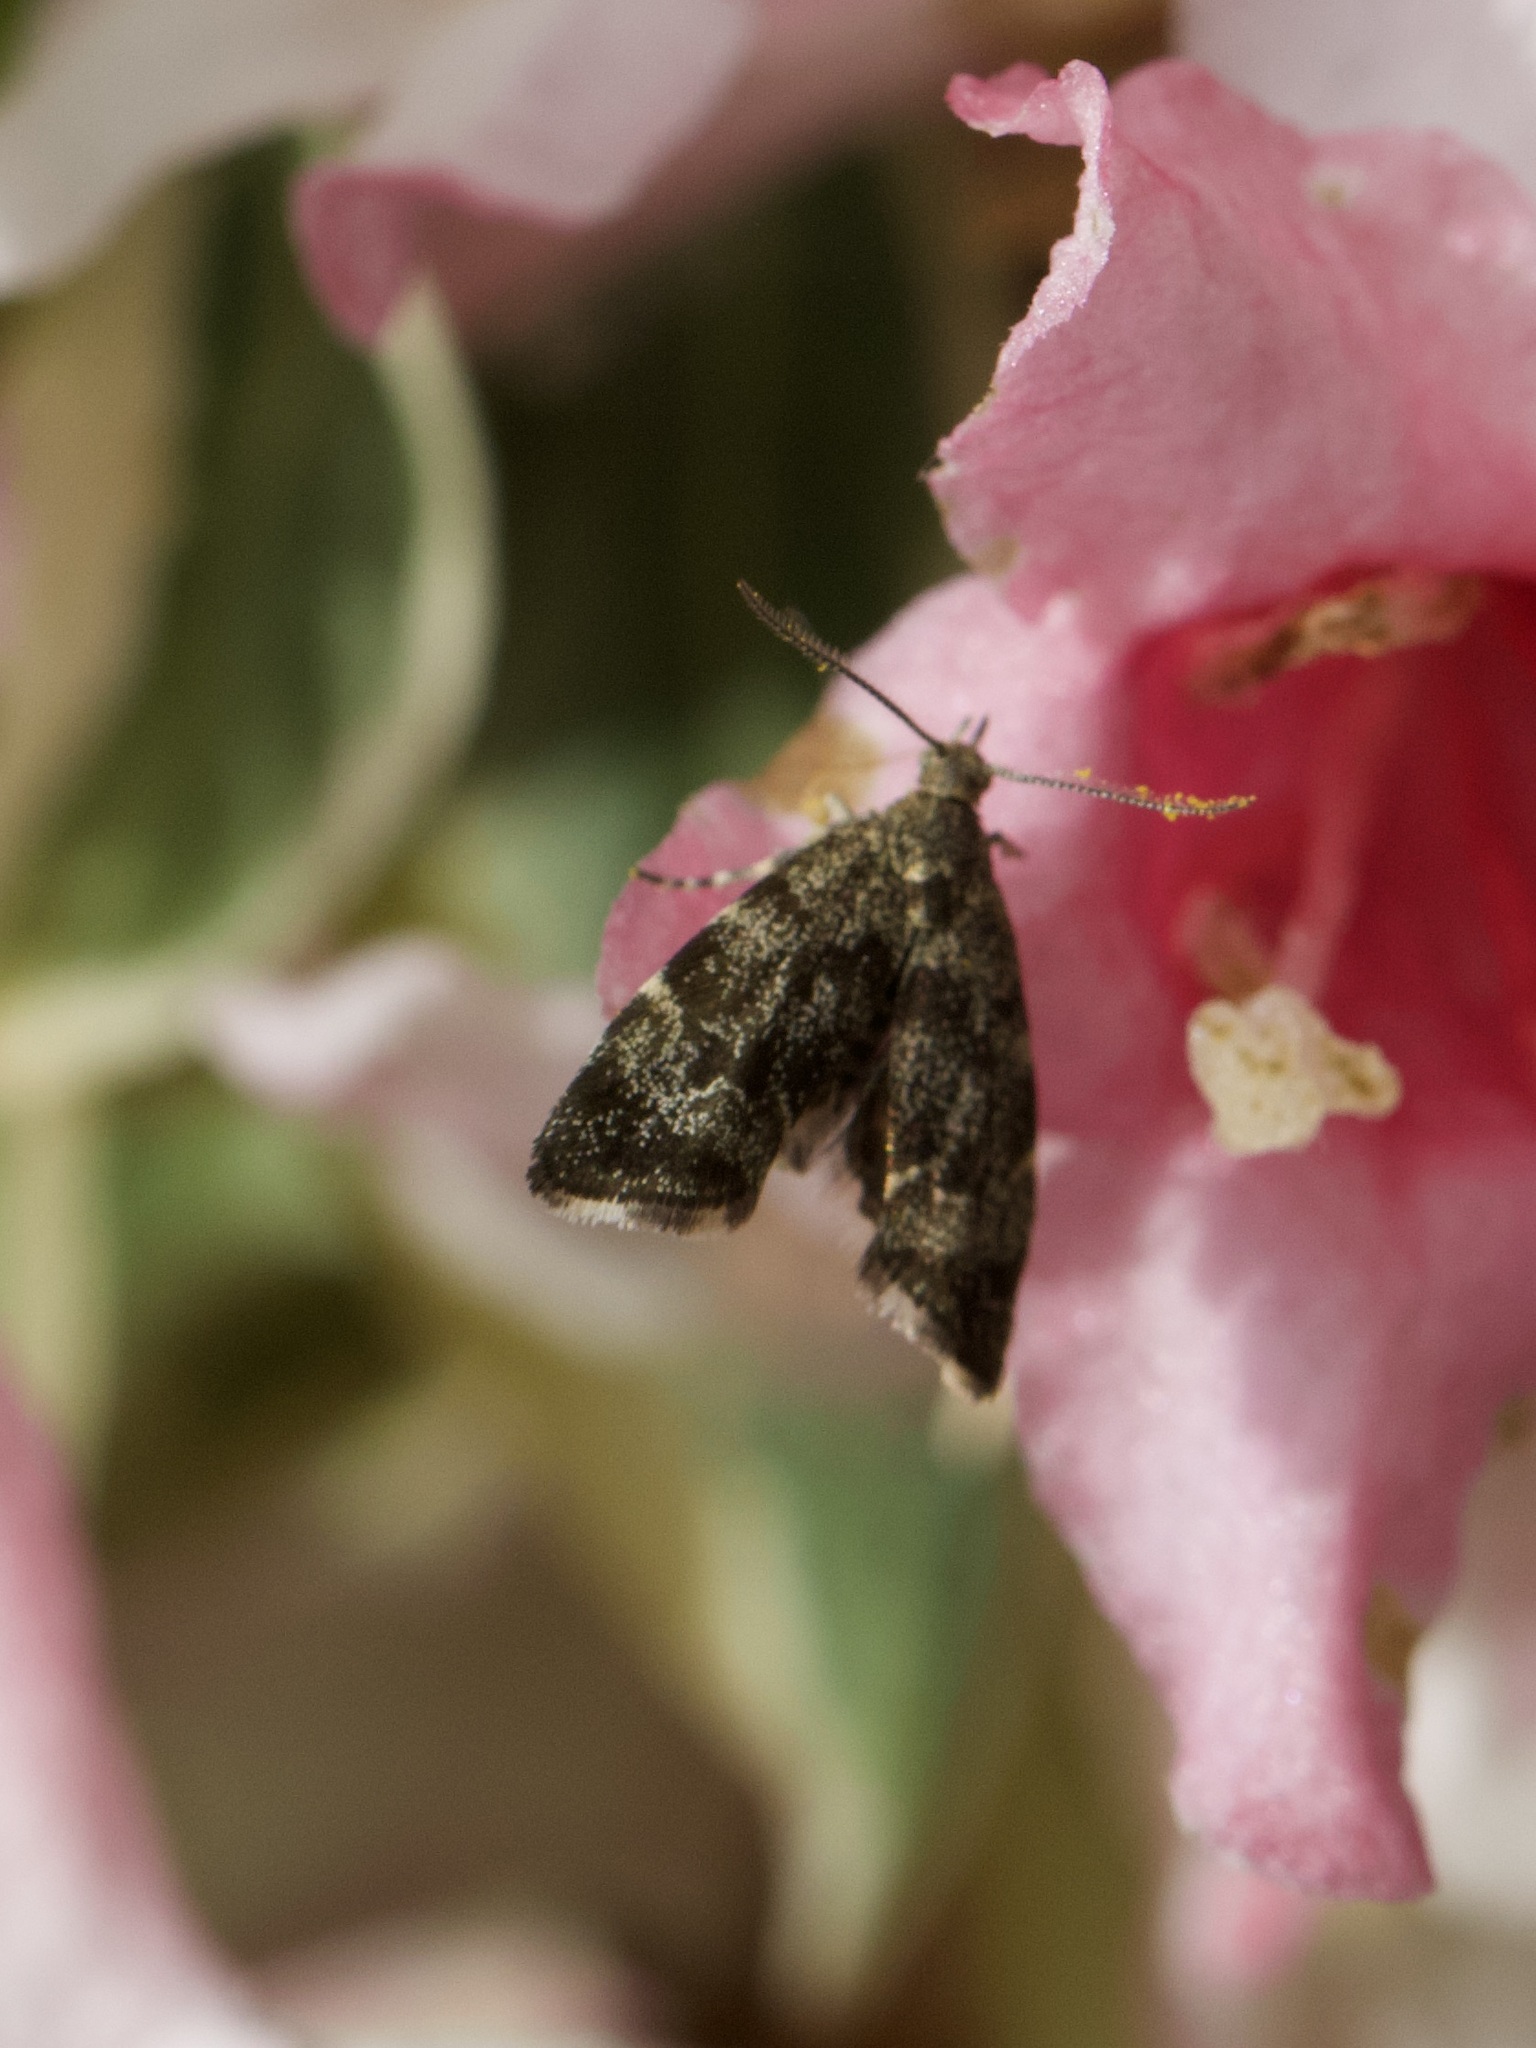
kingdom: Animalia
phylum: Arthropoda
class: Insecta
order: Lepidoptera
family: Choreutidae
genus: Anthophila
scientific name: Anthophila fabriciana
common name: Nettle-tap
